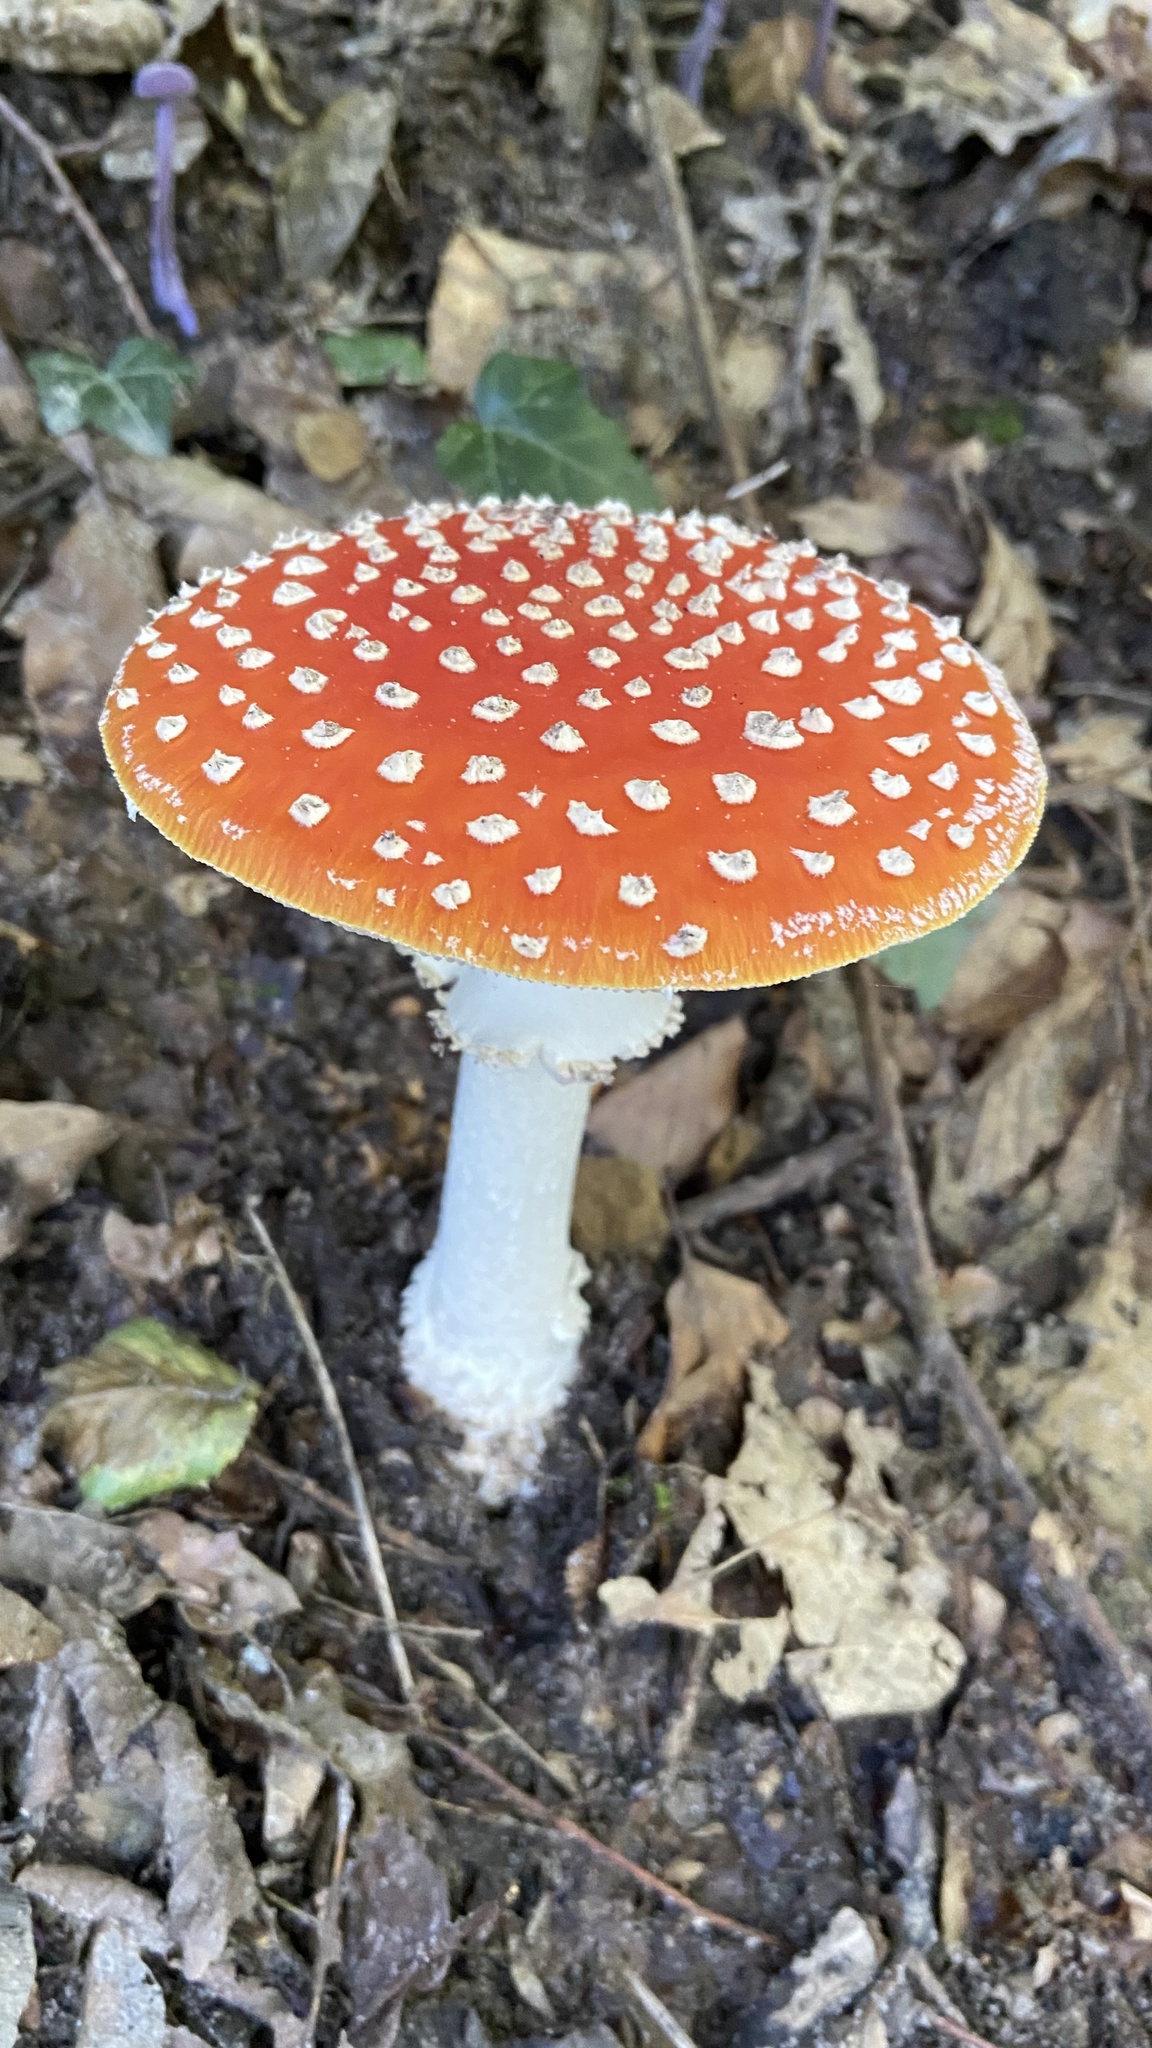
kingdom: Fungi
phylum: Basidiomycota
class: Agaricomycetes
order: Agaricales
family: Amanitaceae
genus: Amanita
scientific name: Amanita muscaria
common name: Fly agaric
